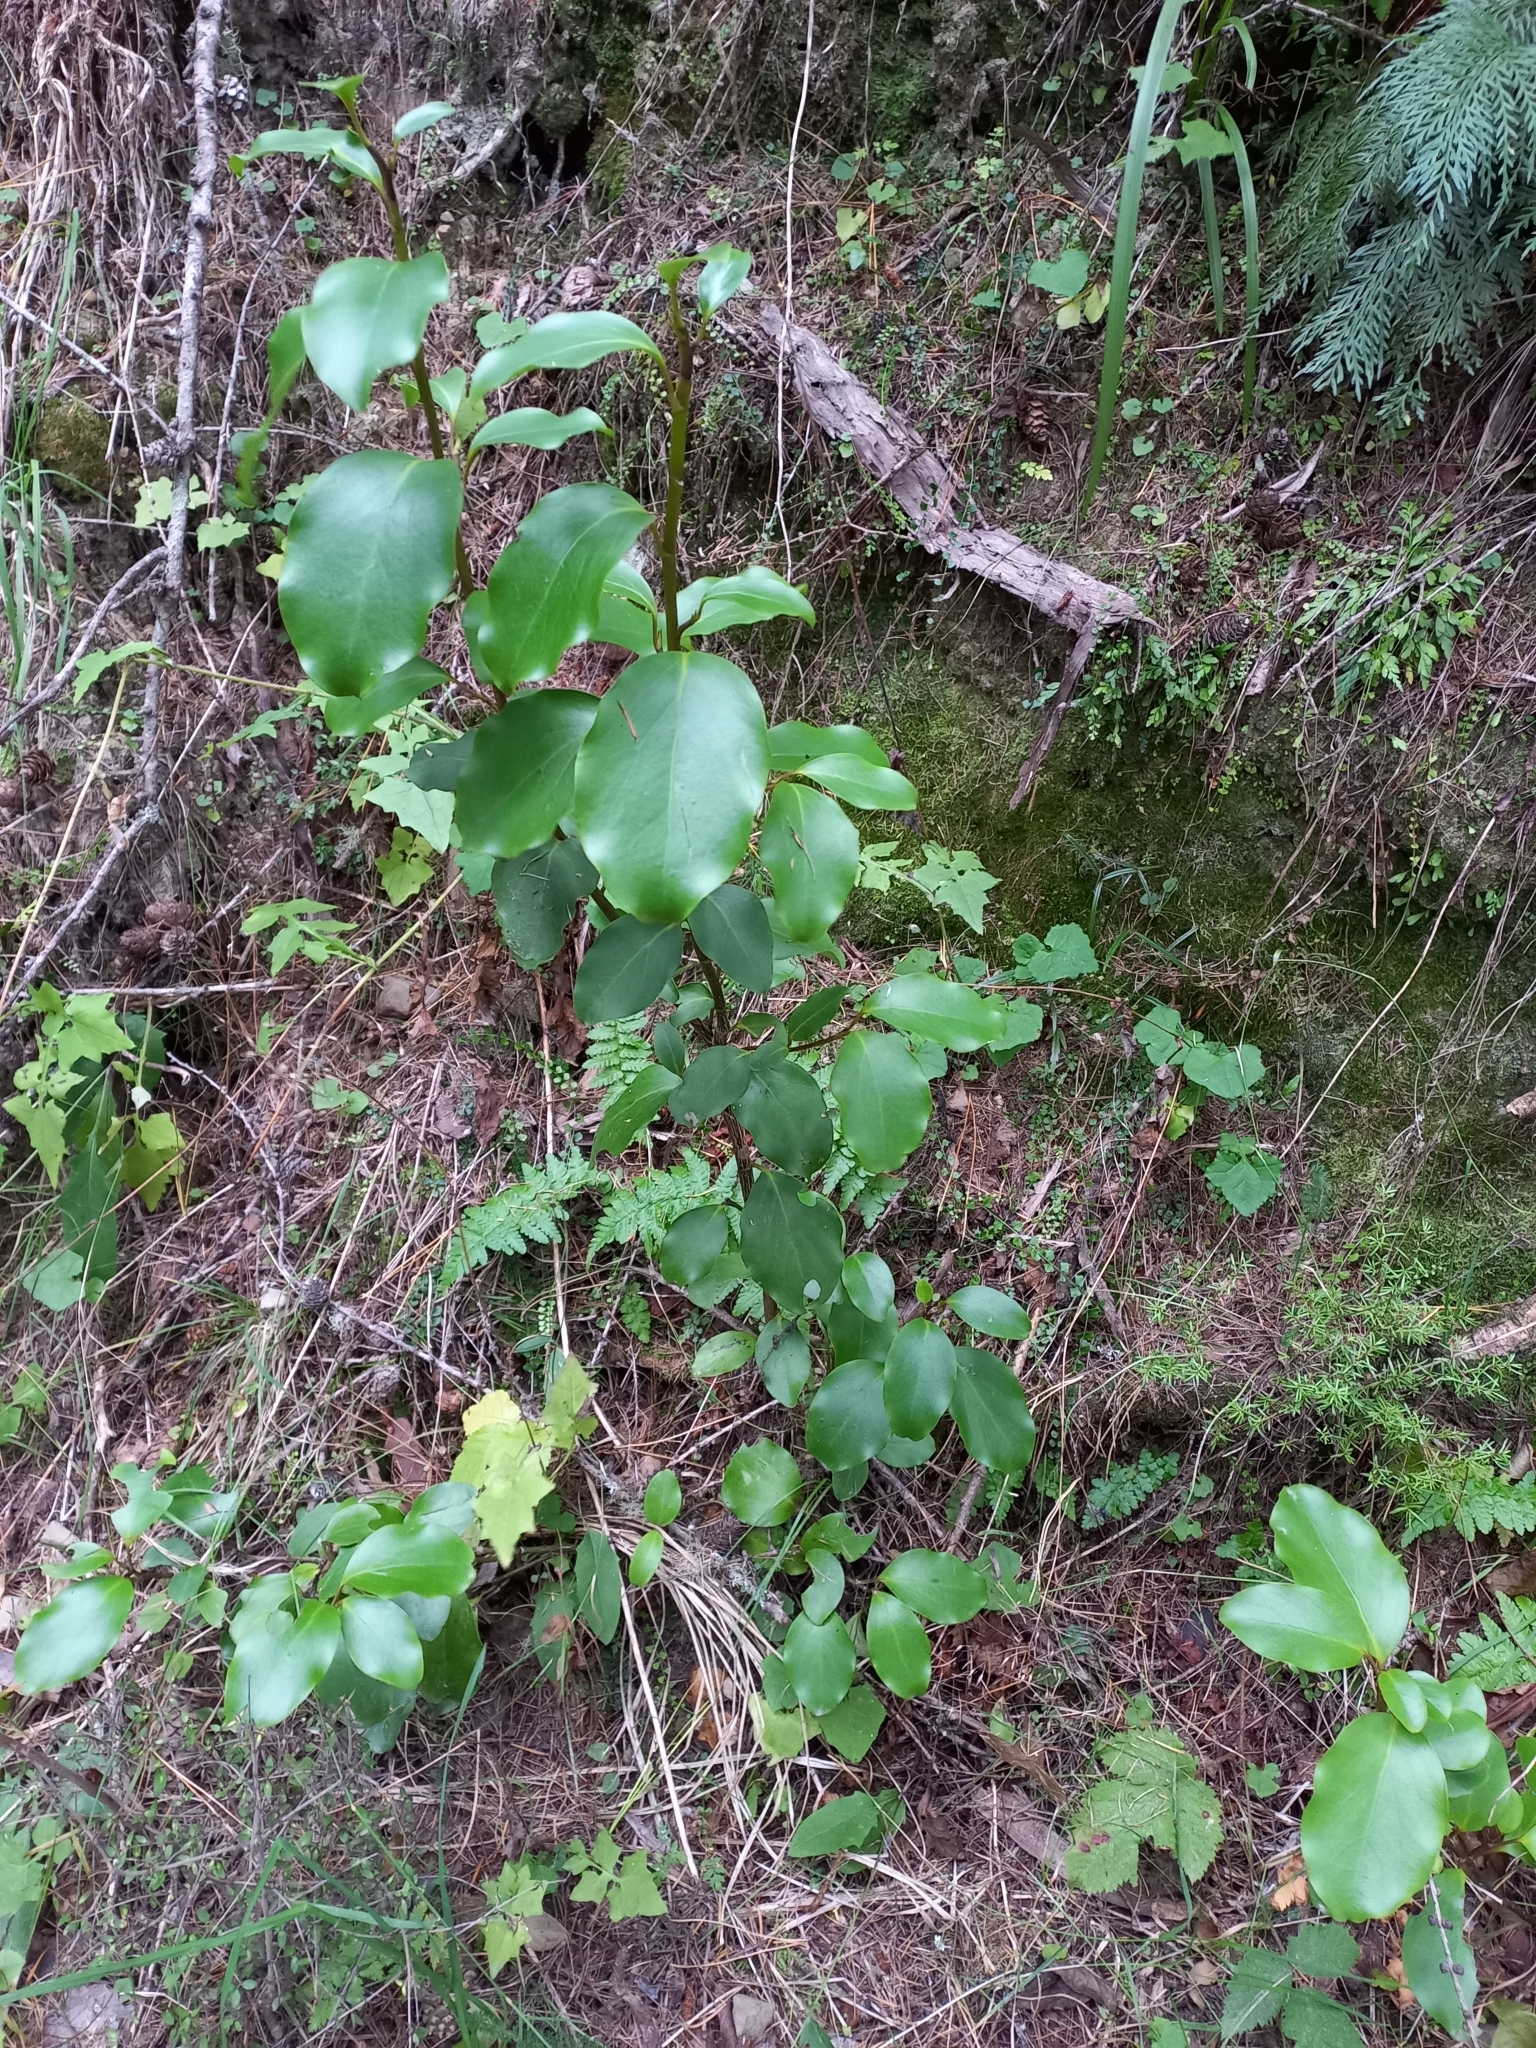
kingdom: Plantae
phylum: Tracheophyta
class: Magnoliopsida
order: Apiales
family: Griseliniaceae
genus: Griselinia
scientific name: Griselinia littoralis
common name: New zealand broadleaf
